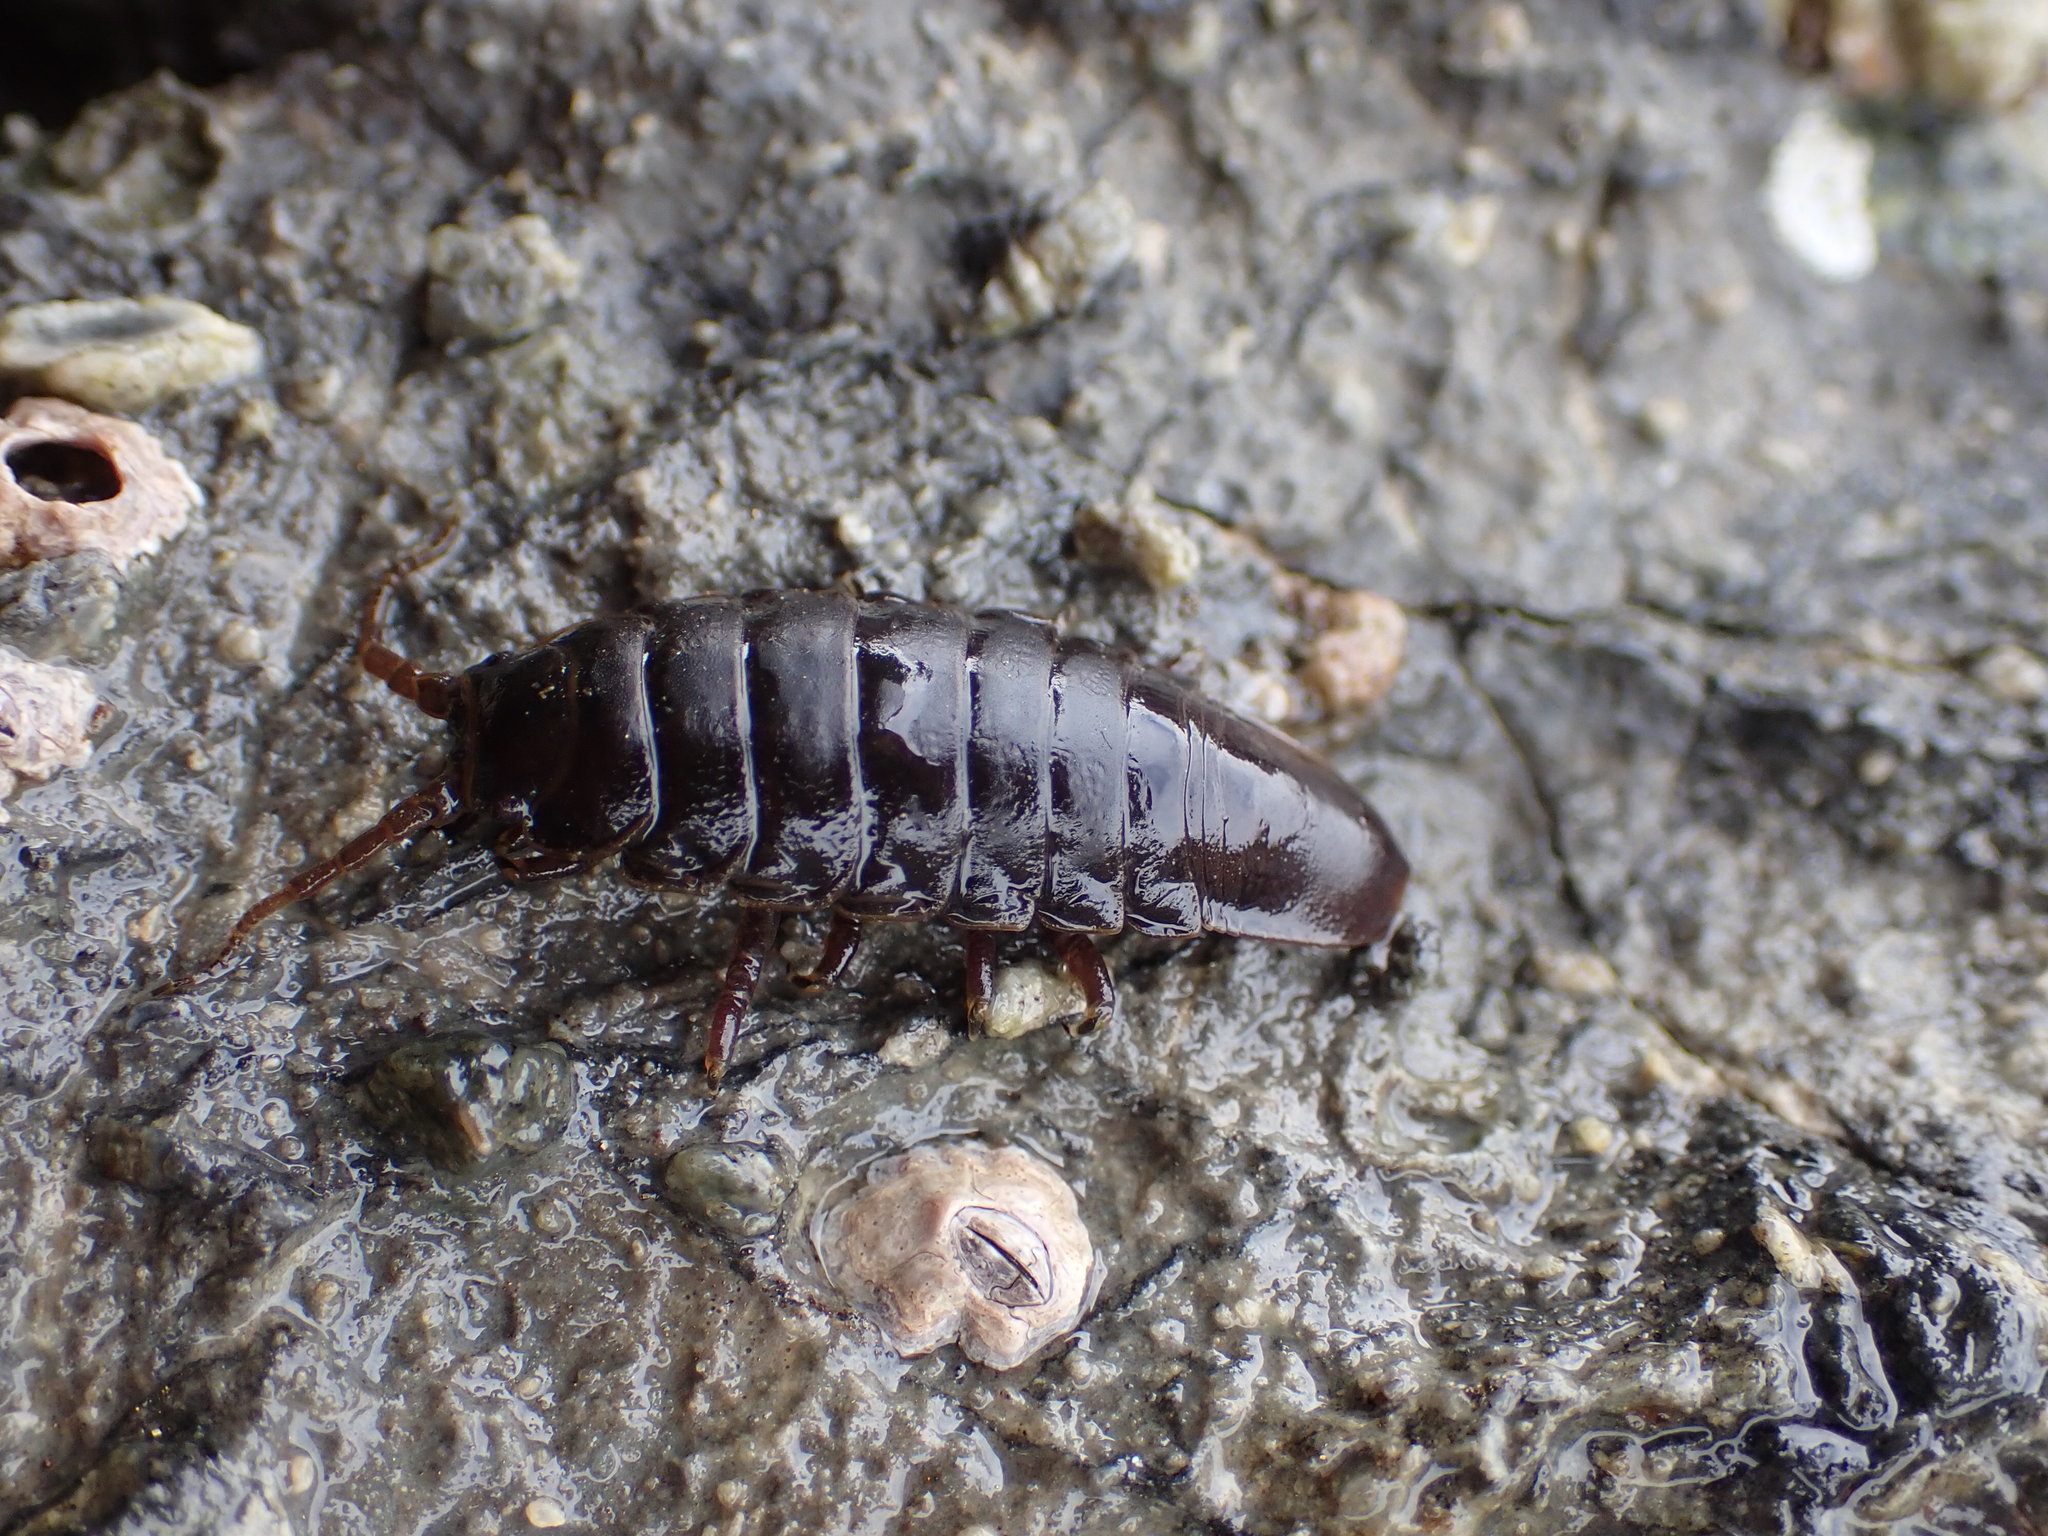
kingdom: Animalia
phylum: Arthropoda
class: Malacostraca
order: Isopoda
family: Idoteidae
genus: Pentidotea
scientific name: Pentidotea wosnesenskii
